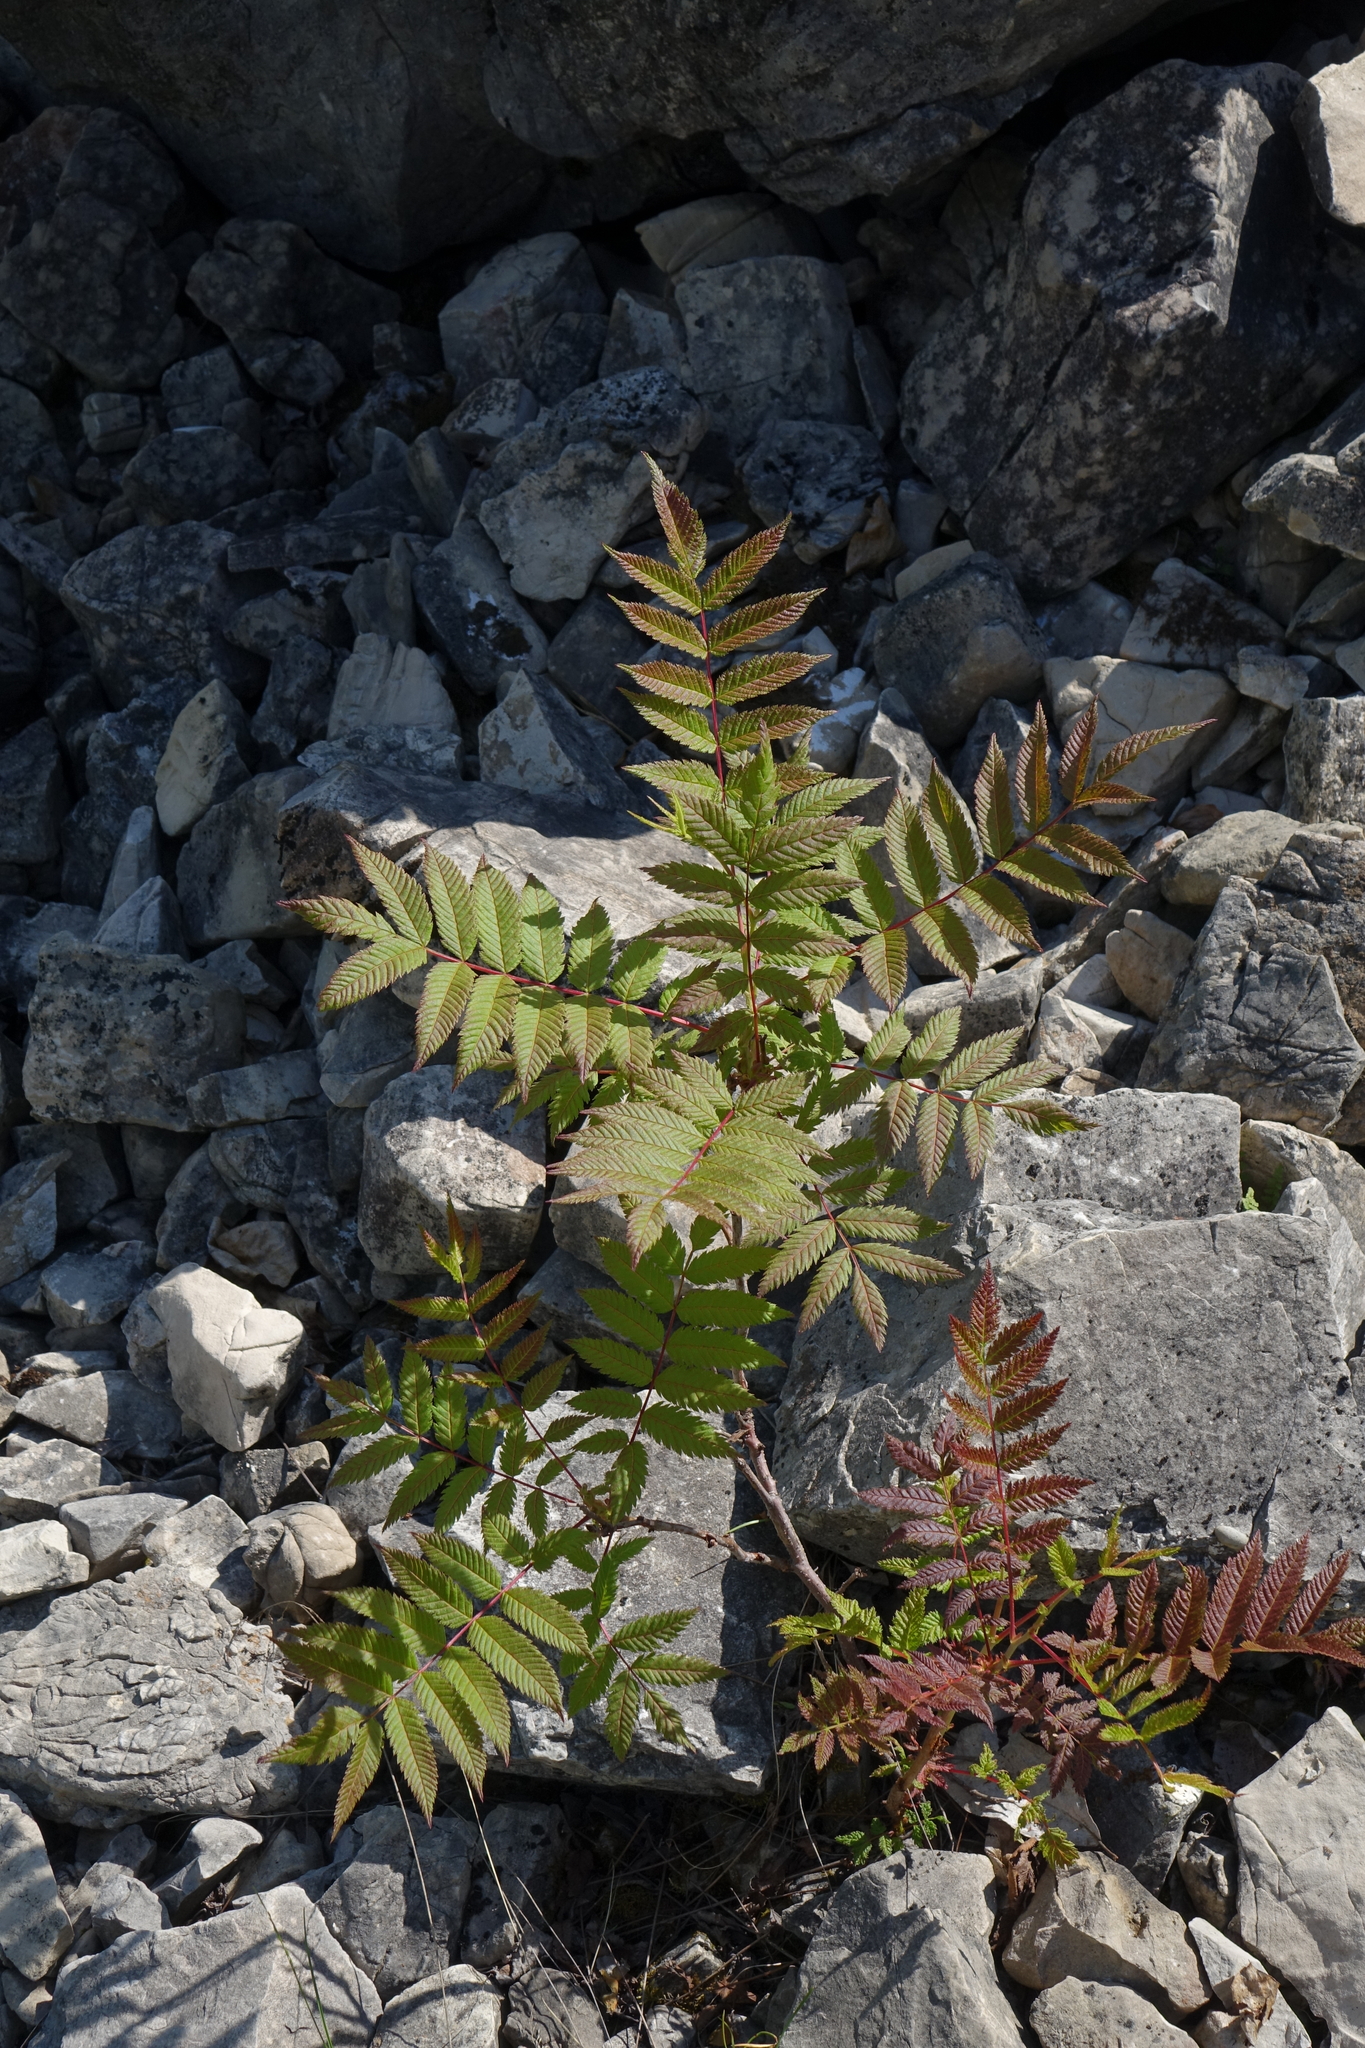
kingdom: Plantae
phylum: Tracheophyta
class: Magnoliopsida
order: Rosales
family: Rosaceae
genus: Sorbaria
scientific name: Sorbaria pallasii
